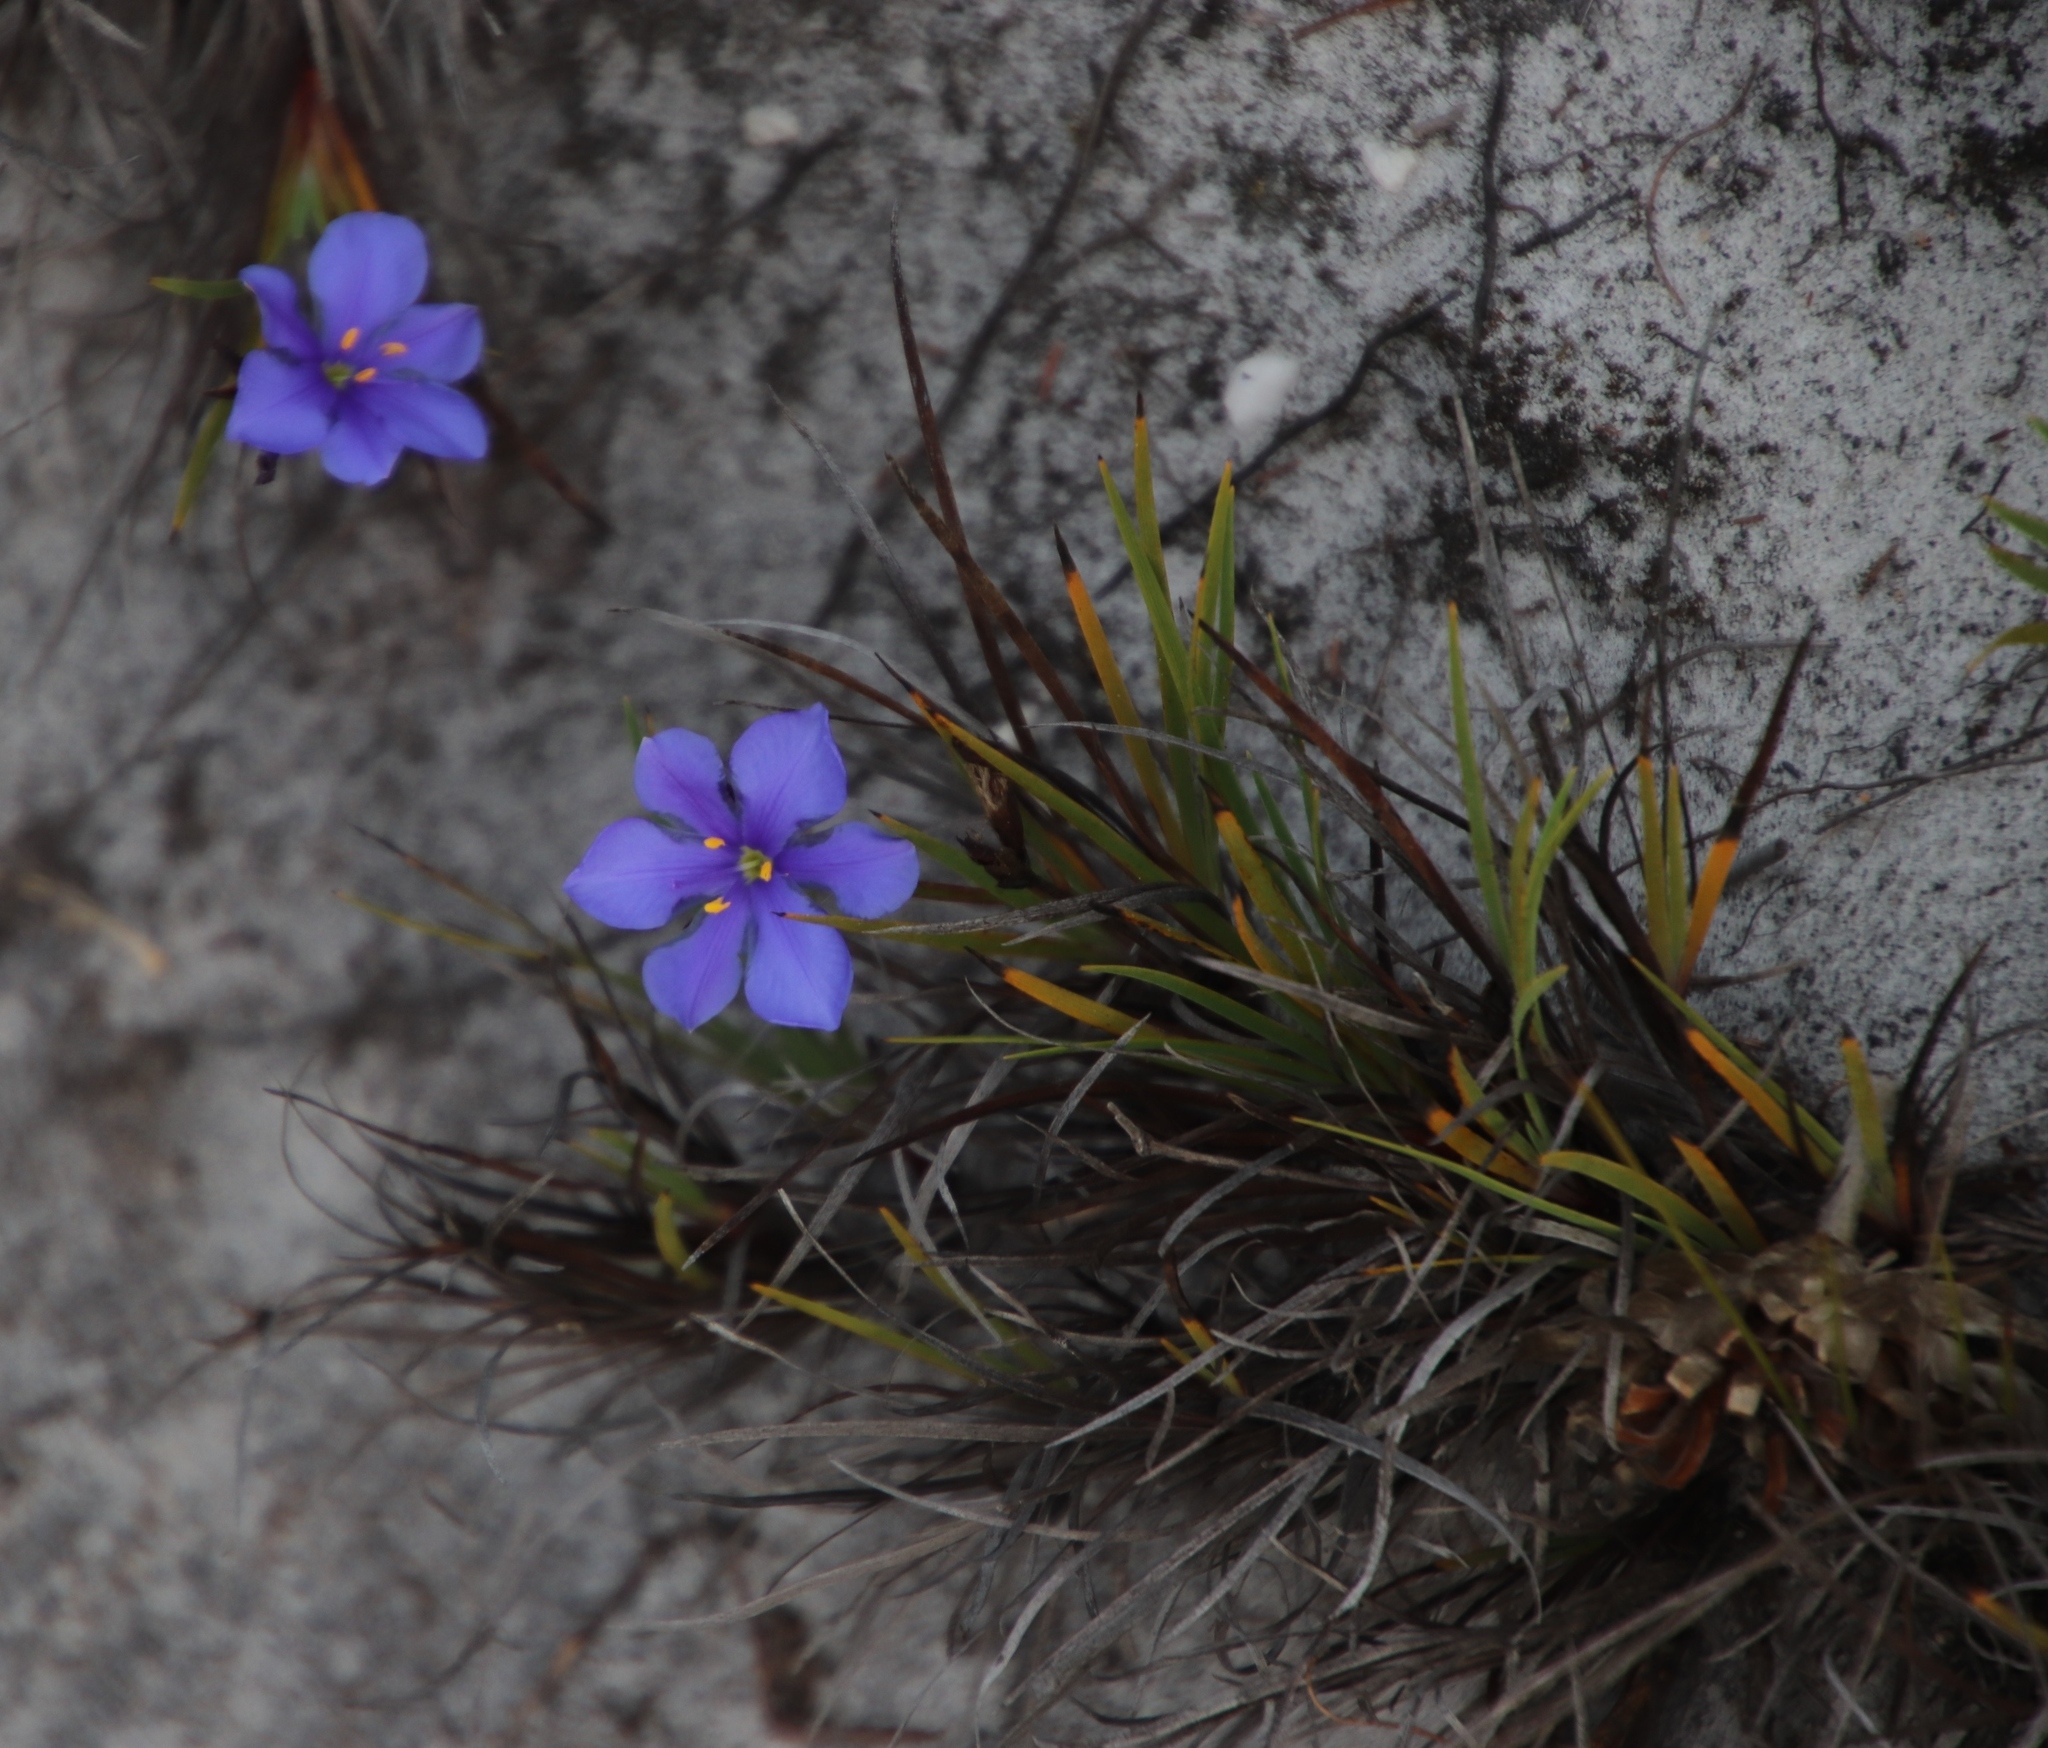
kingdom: Plantae
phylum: Tracheophyta
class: Liliopsida
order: Asparagales
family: Iridaceae
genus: Aristea
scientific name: Aristea africana
